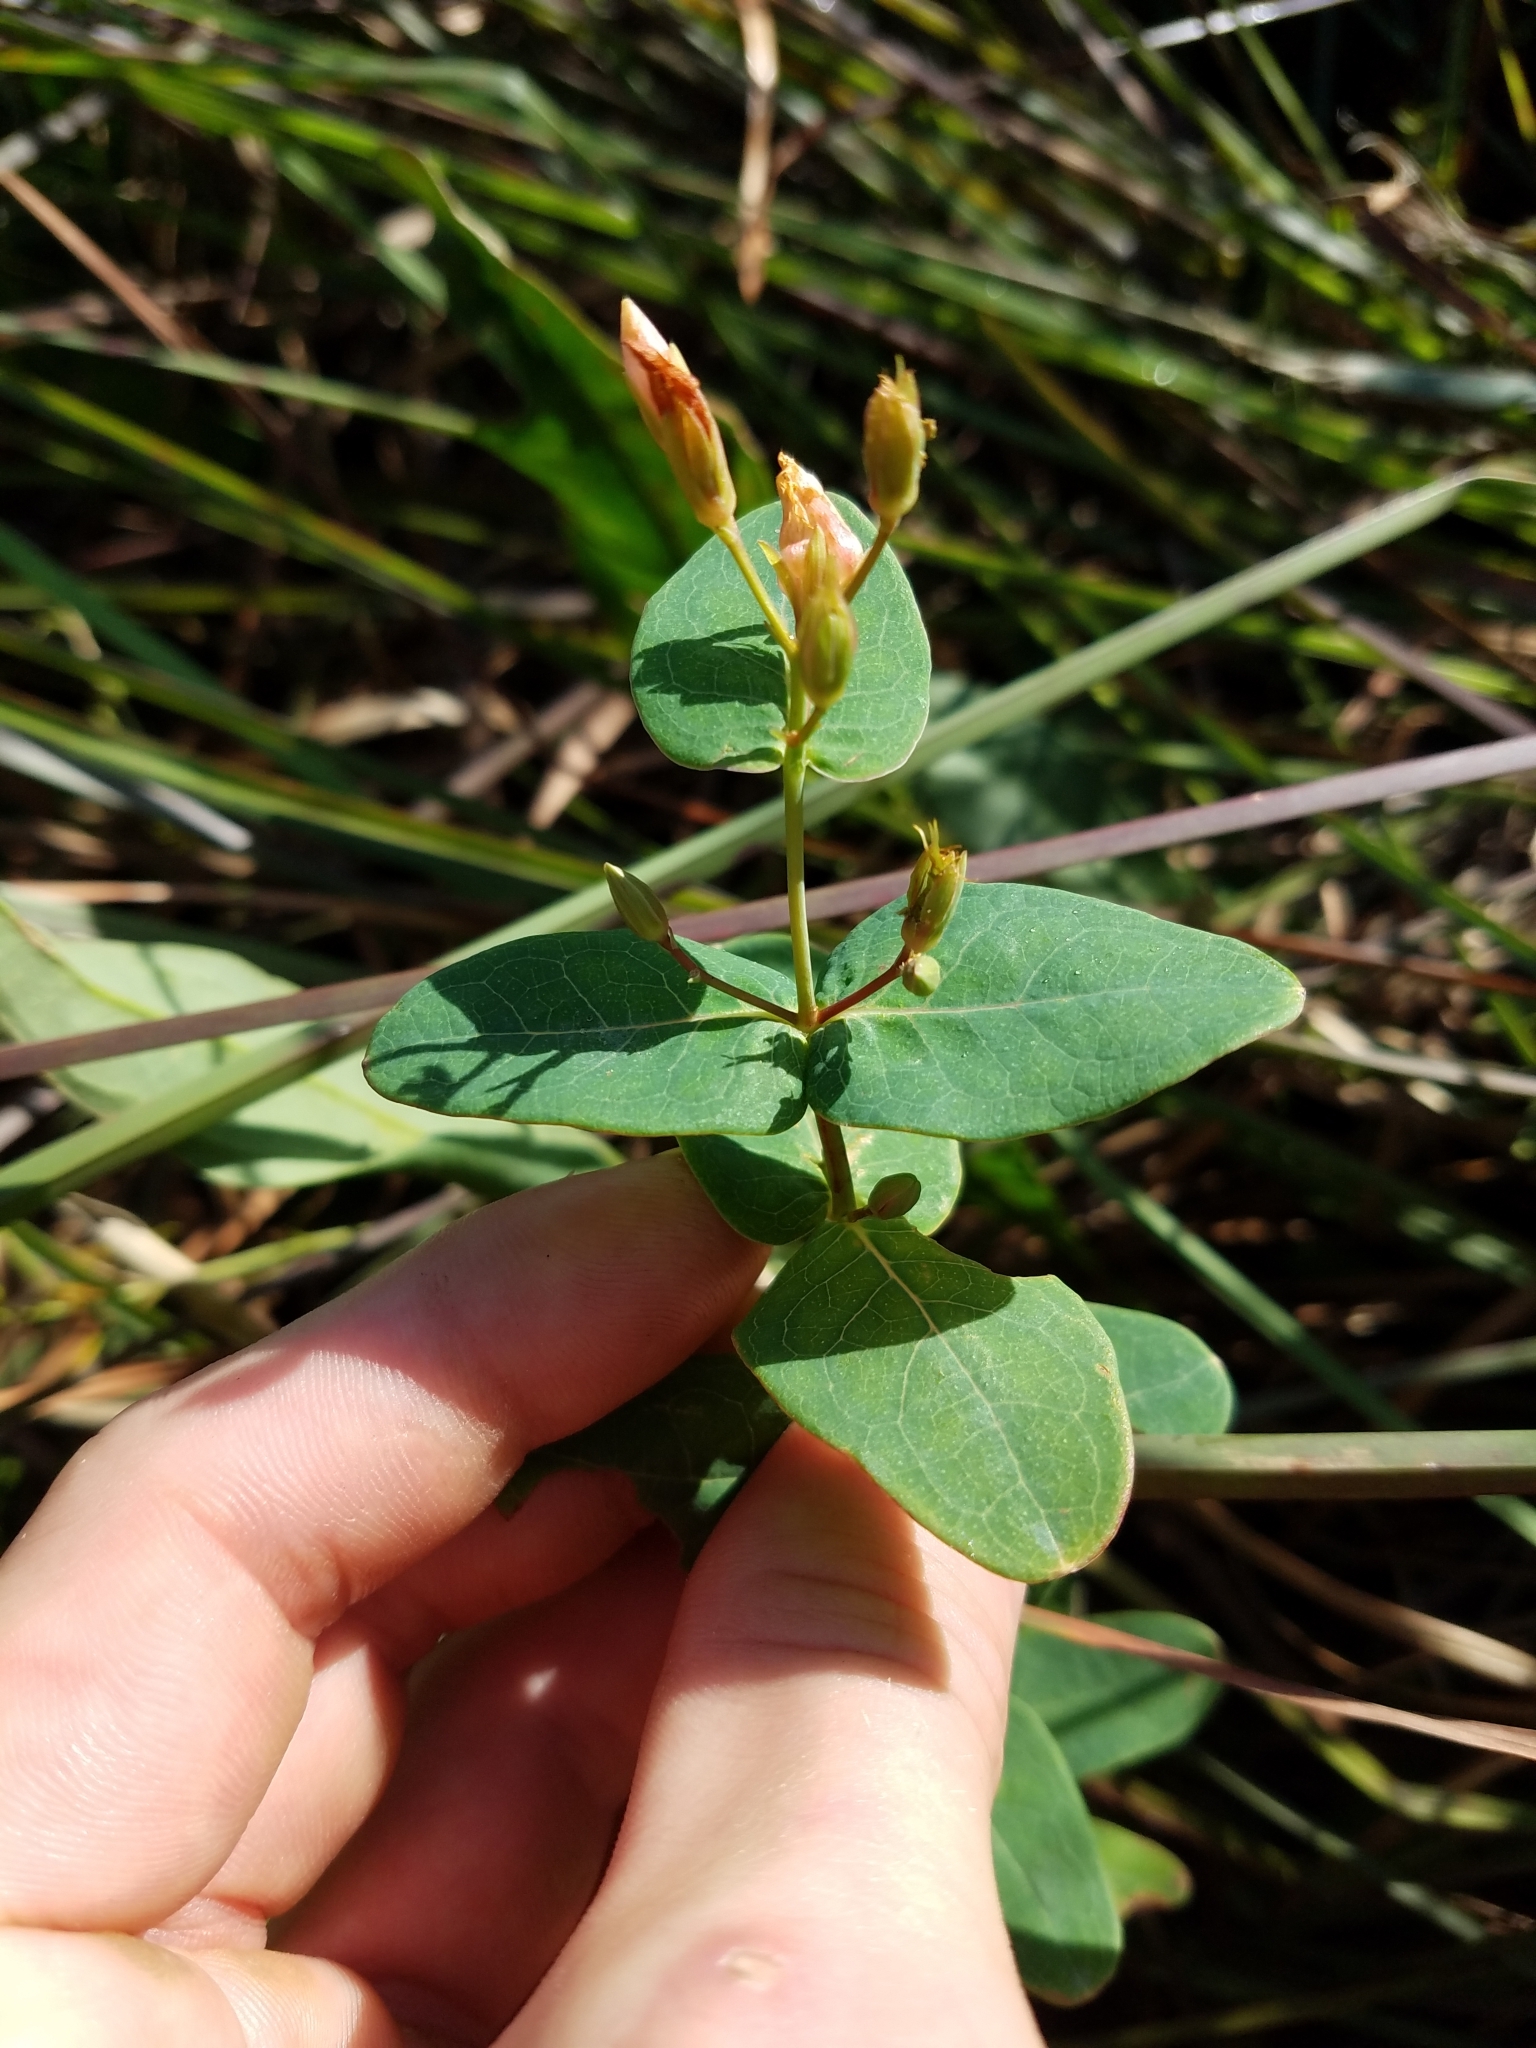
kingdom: Plantae
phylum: Tracheophyta
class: Magnoliopsida
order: Malpighiales
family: Hypericaceae
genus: Triadenum
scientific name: Triadenum virginicum
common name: Marsh st. john's-wort
